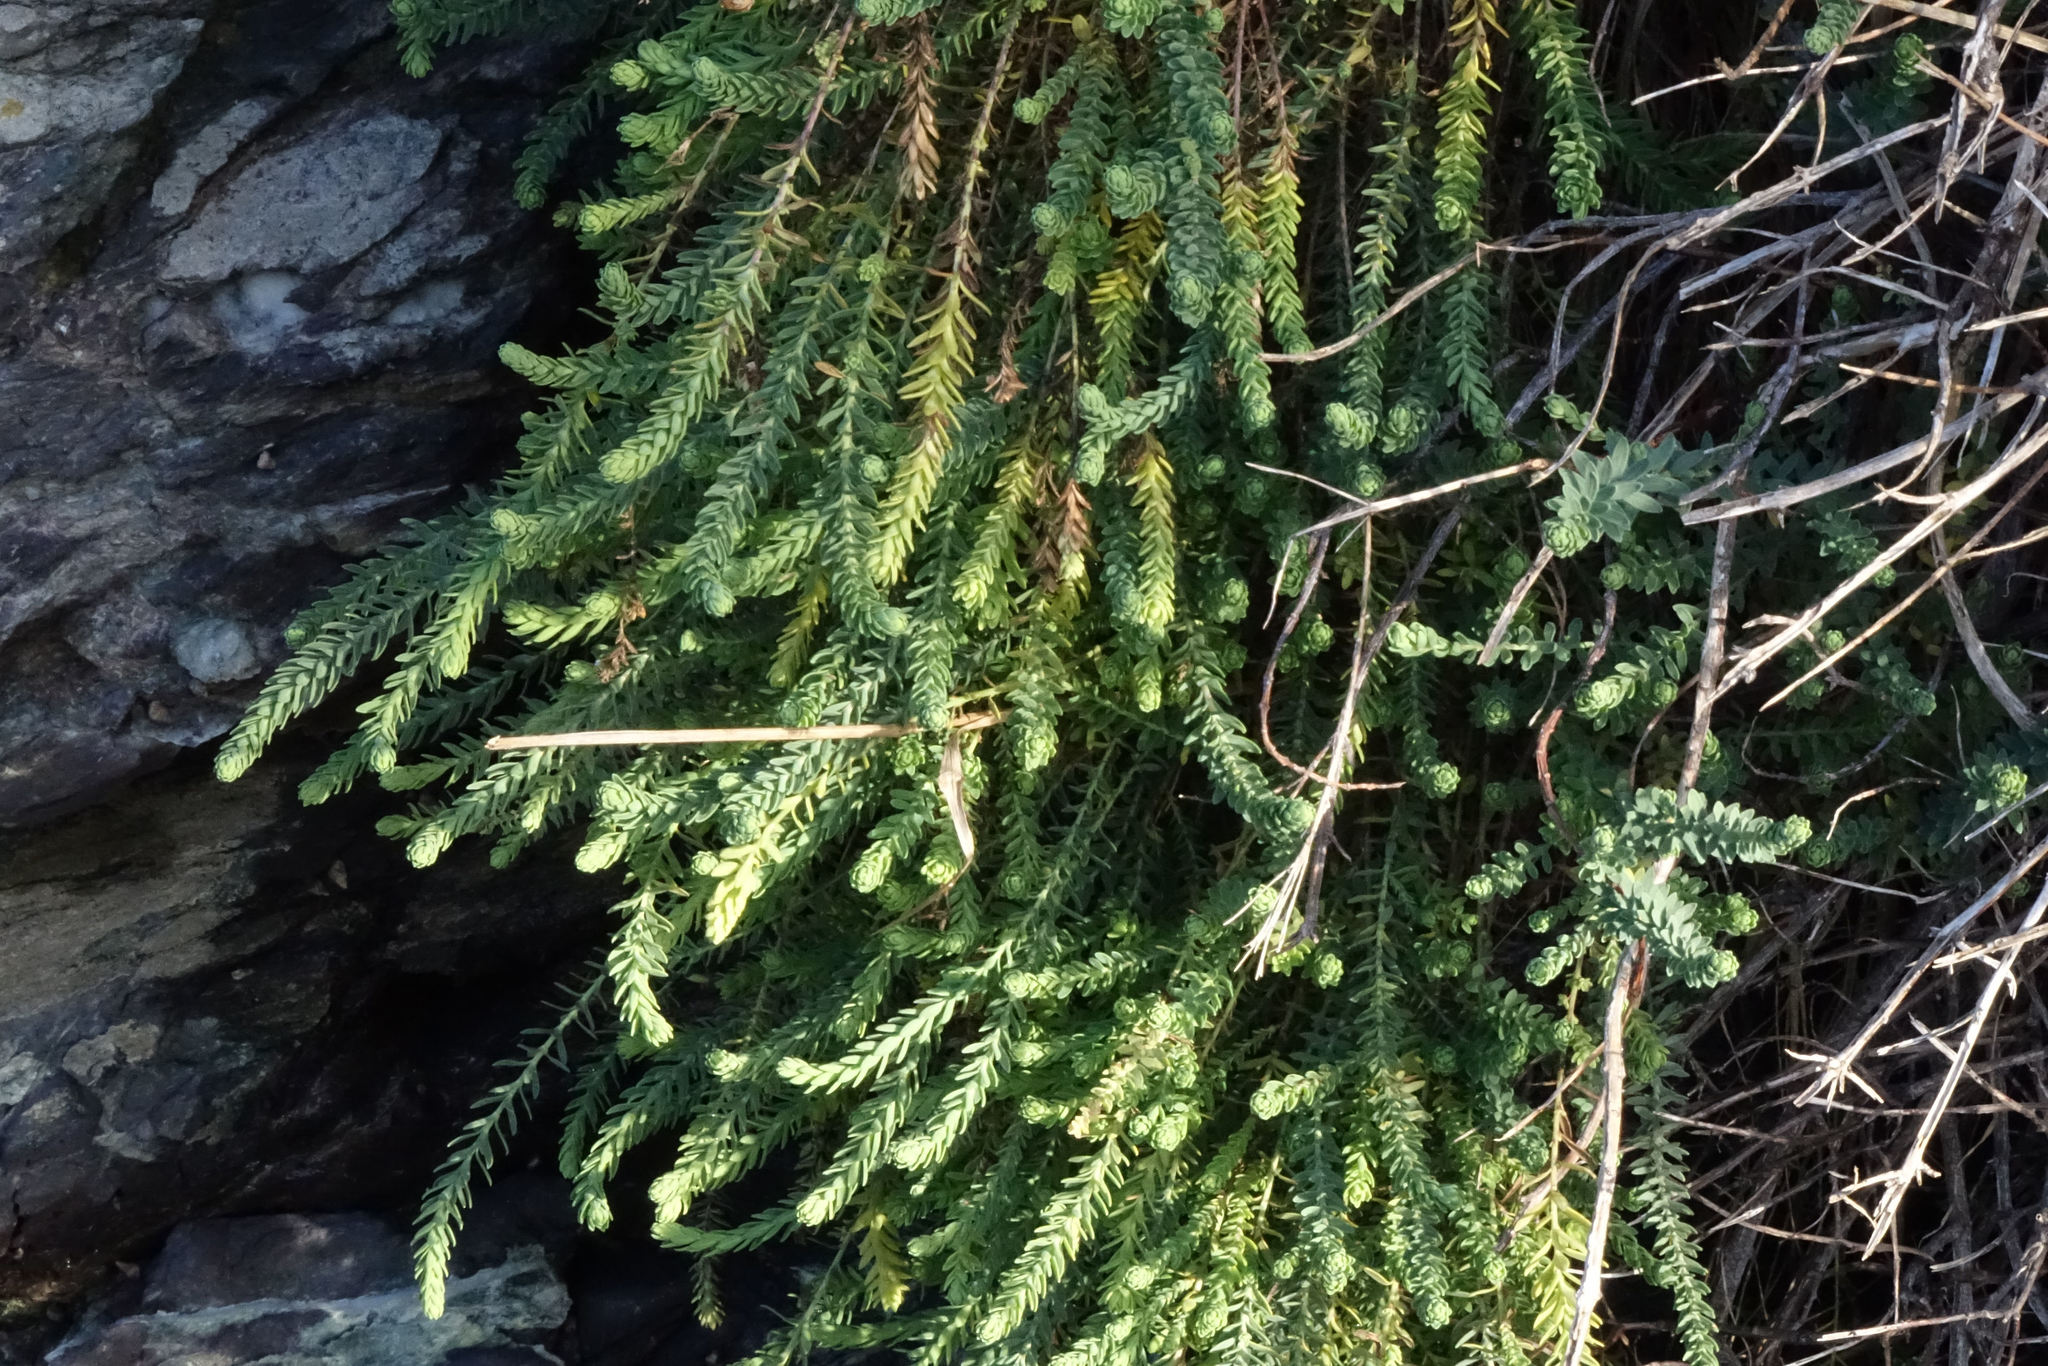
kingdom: Plantae
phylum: Tracheophyta
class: Magnoliopsida
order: Malpighiales
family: Linaceae
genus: Linum
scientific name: Linum monogynum
